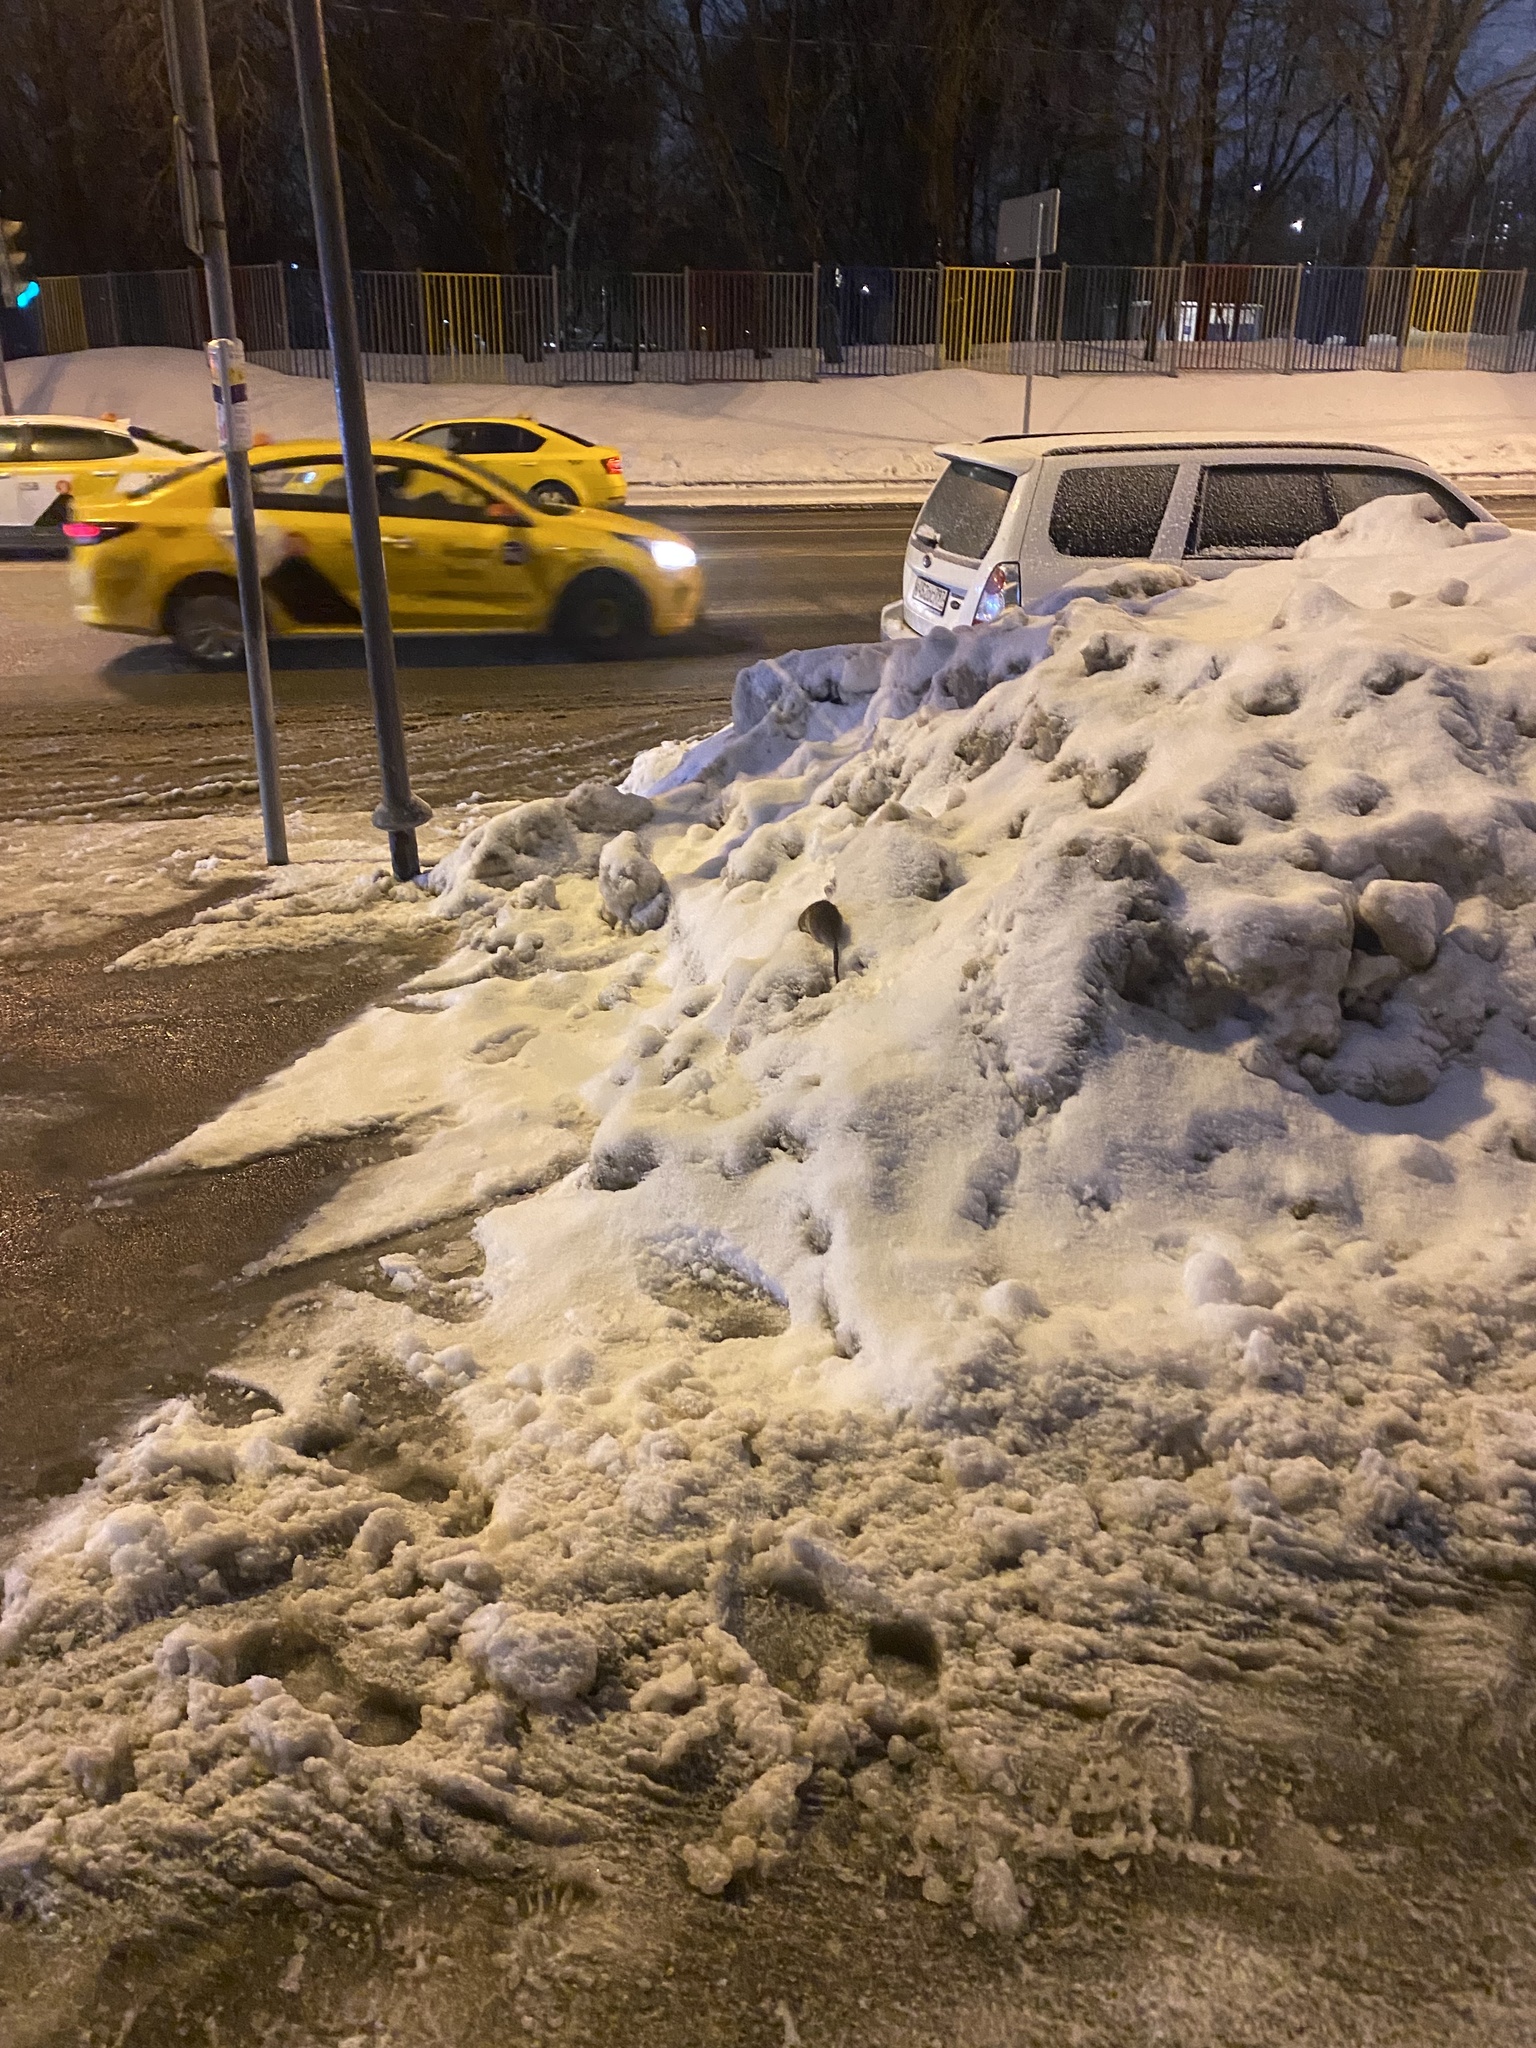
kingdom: Animalia
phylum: Chordata
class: Mammalia
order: Rodentia
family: Muridae
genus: Rattus
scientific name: Rattus norvegicus
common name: Brown rat
